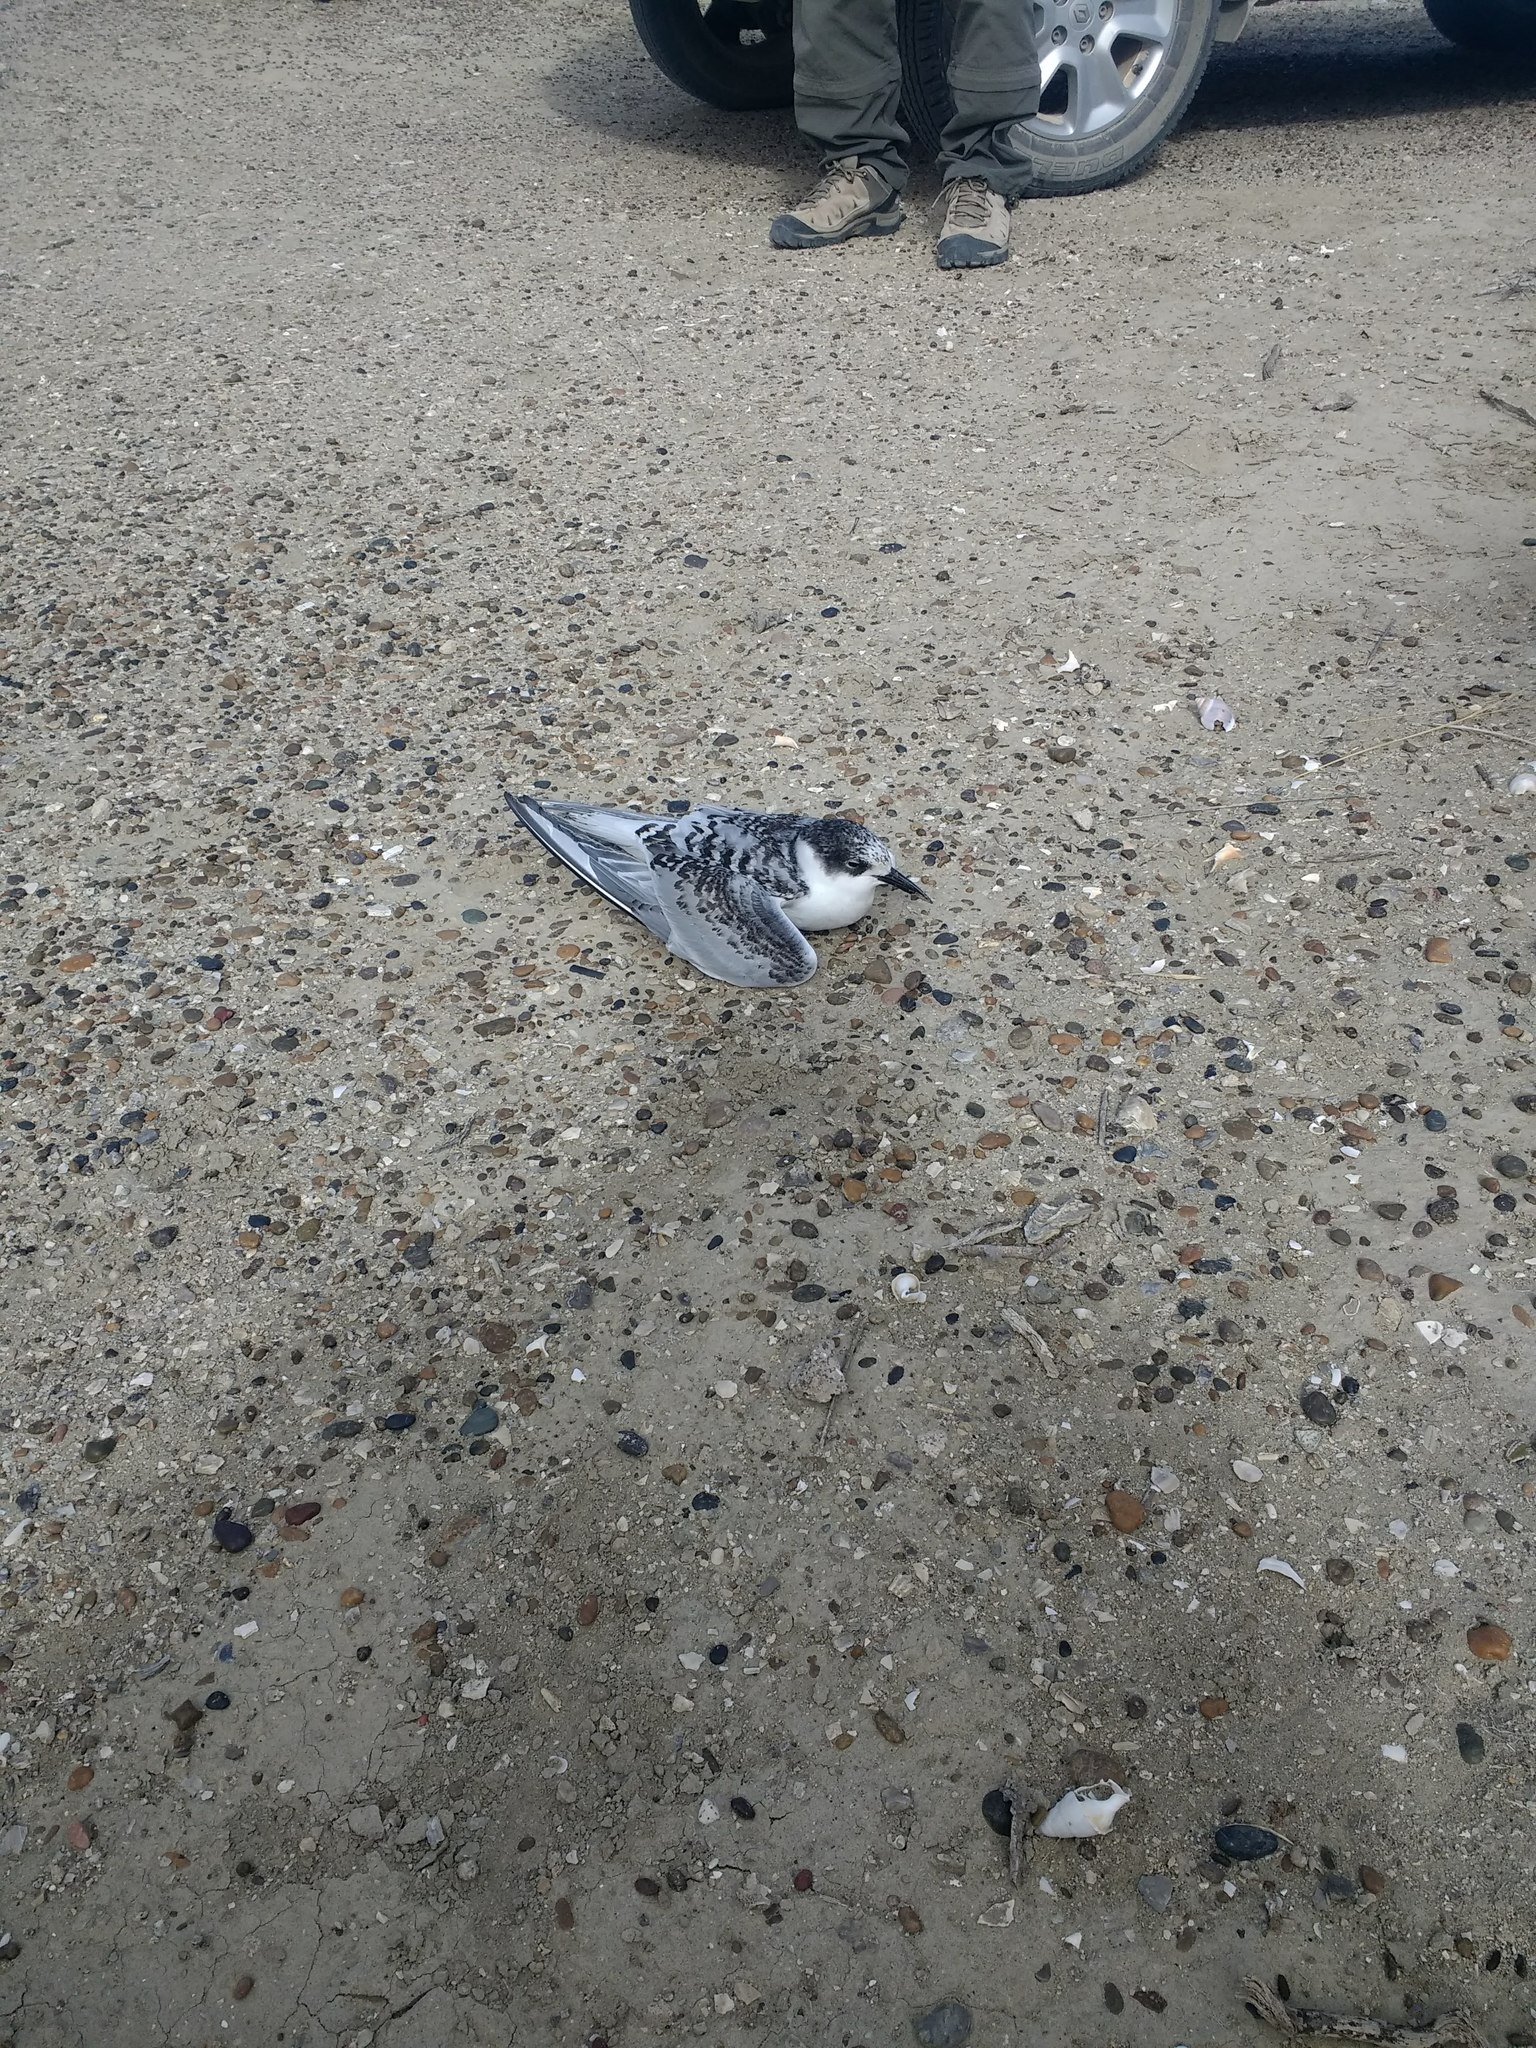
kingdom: Animalia
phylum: Chordata
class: Aves
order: Charadriiformes
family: Laridae
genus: Sterna
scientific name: Sterna hirundo
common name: Common tern
